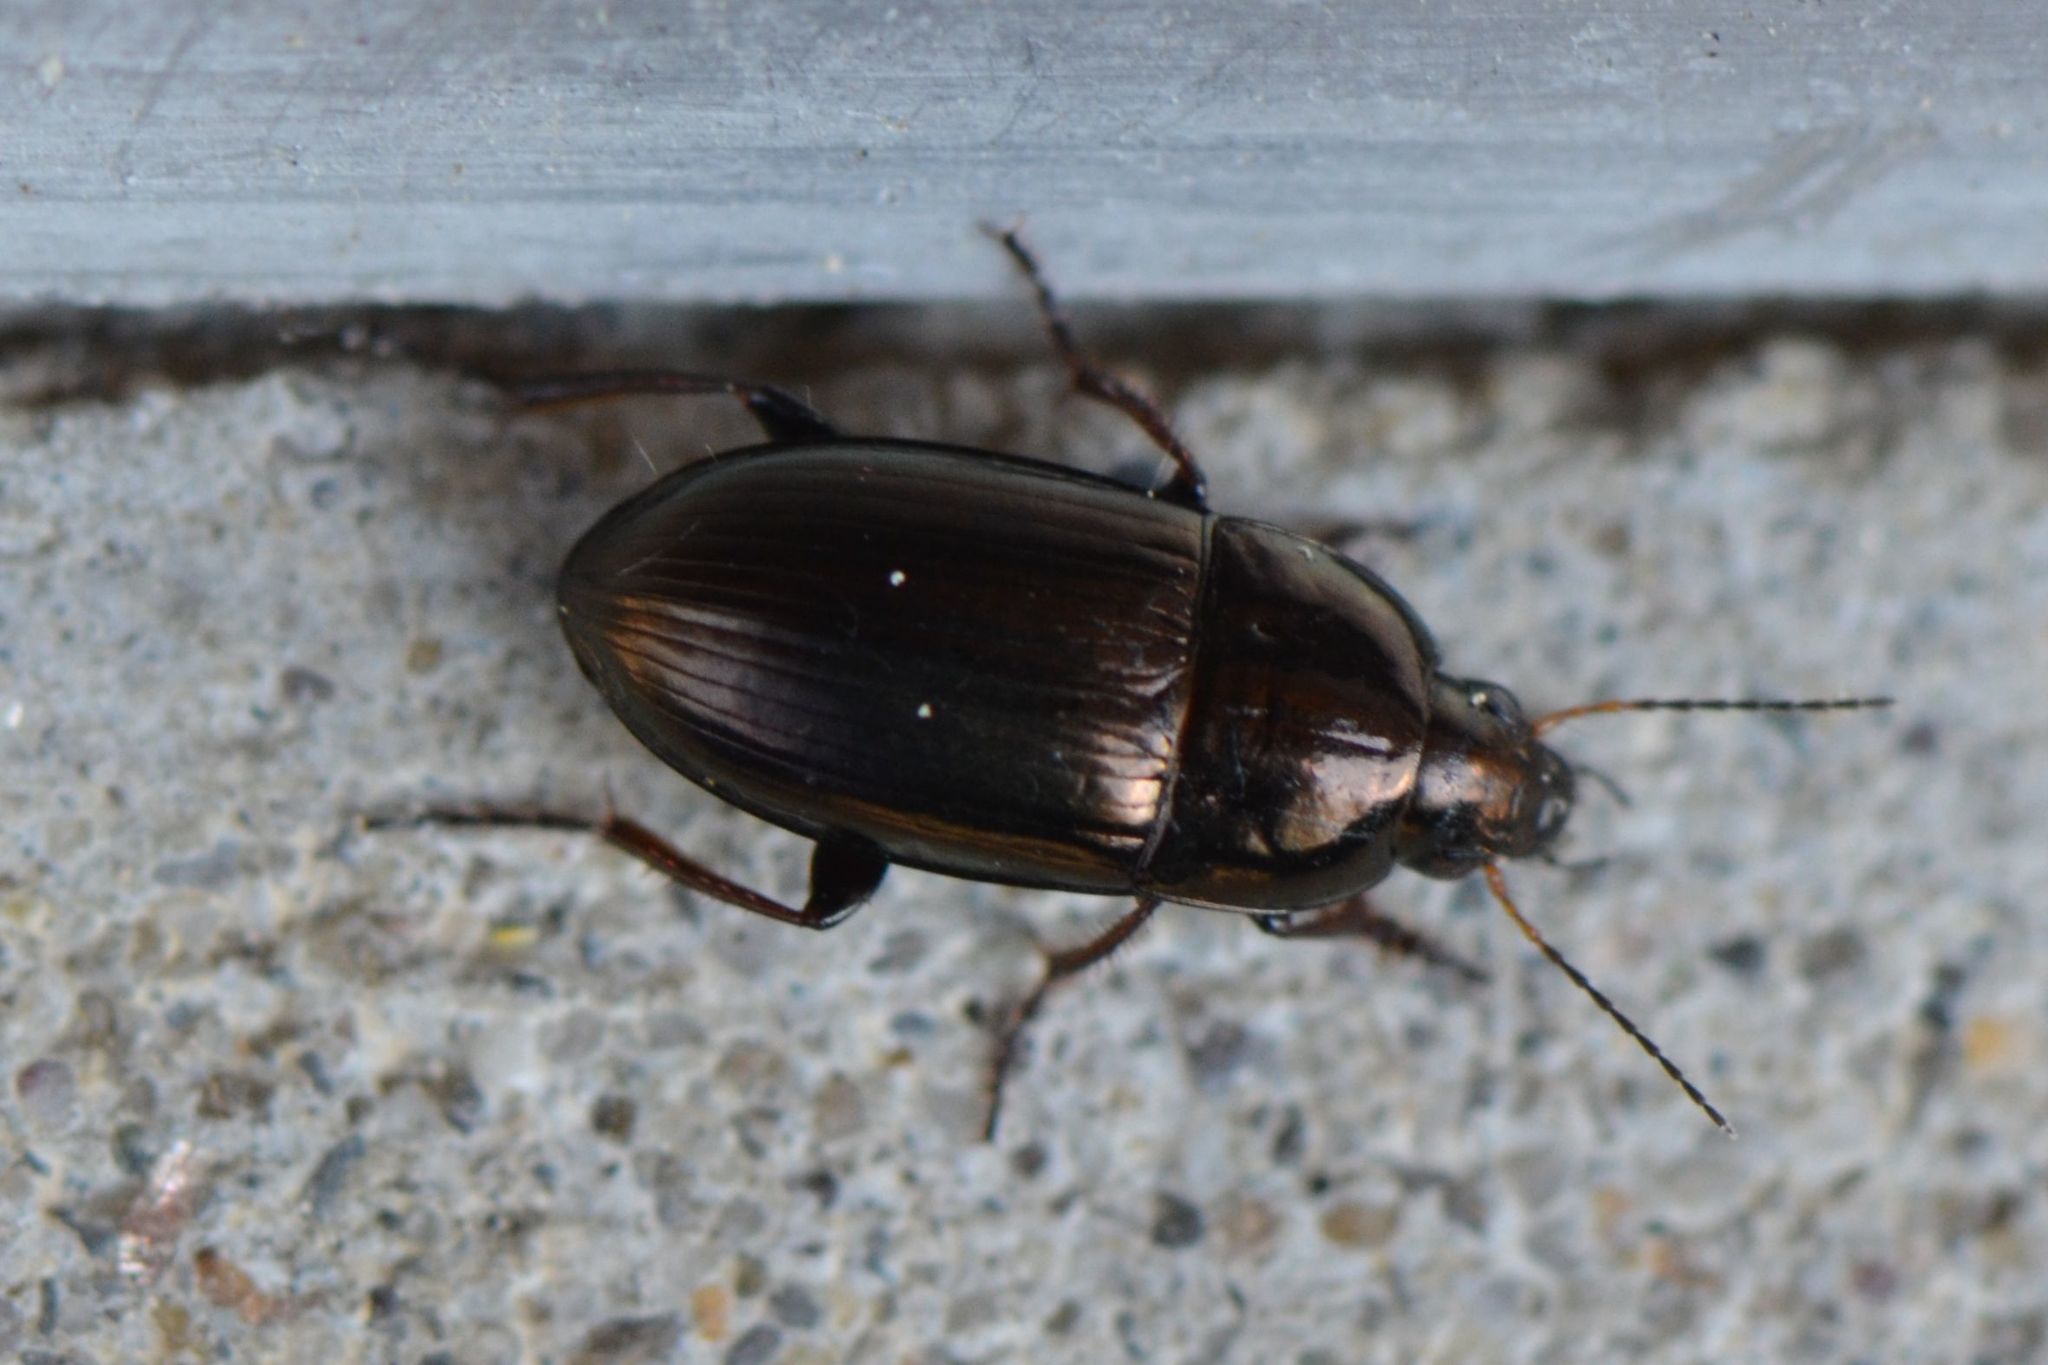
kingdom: Animalia
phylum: Arthropoda
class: Insecta
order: Coleoptera
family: Carabidae
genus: Amara
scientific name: Amara aenea
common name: Common sun beetle
